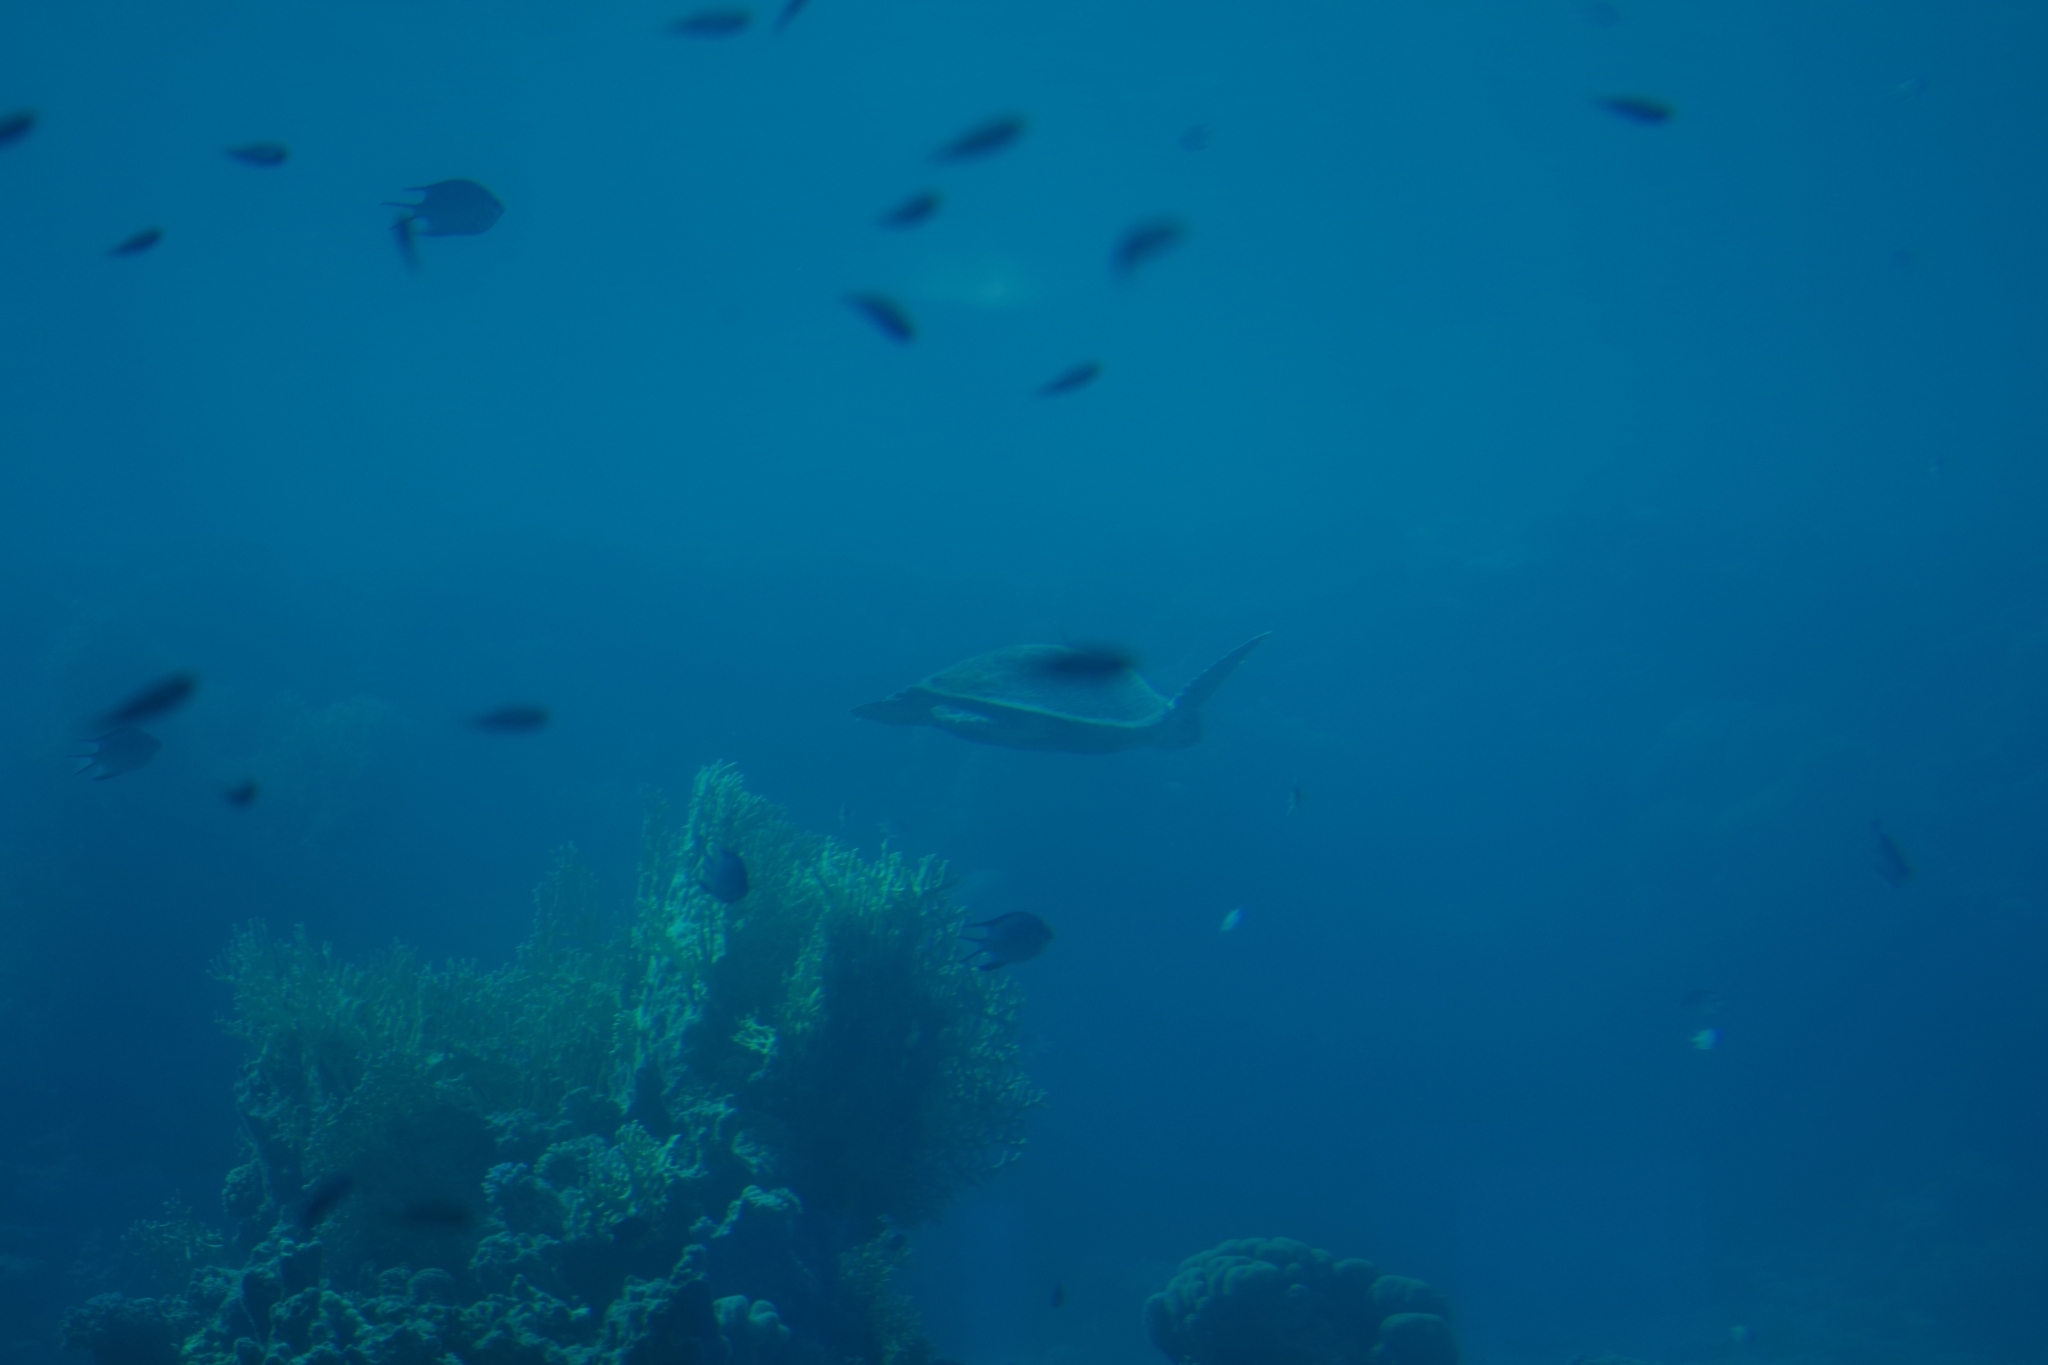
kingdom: Animalia
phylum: Chordata
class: Testudines
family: Cheloniidae
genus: Chelonia
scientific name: Chelonia mydas
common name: Green turtle
